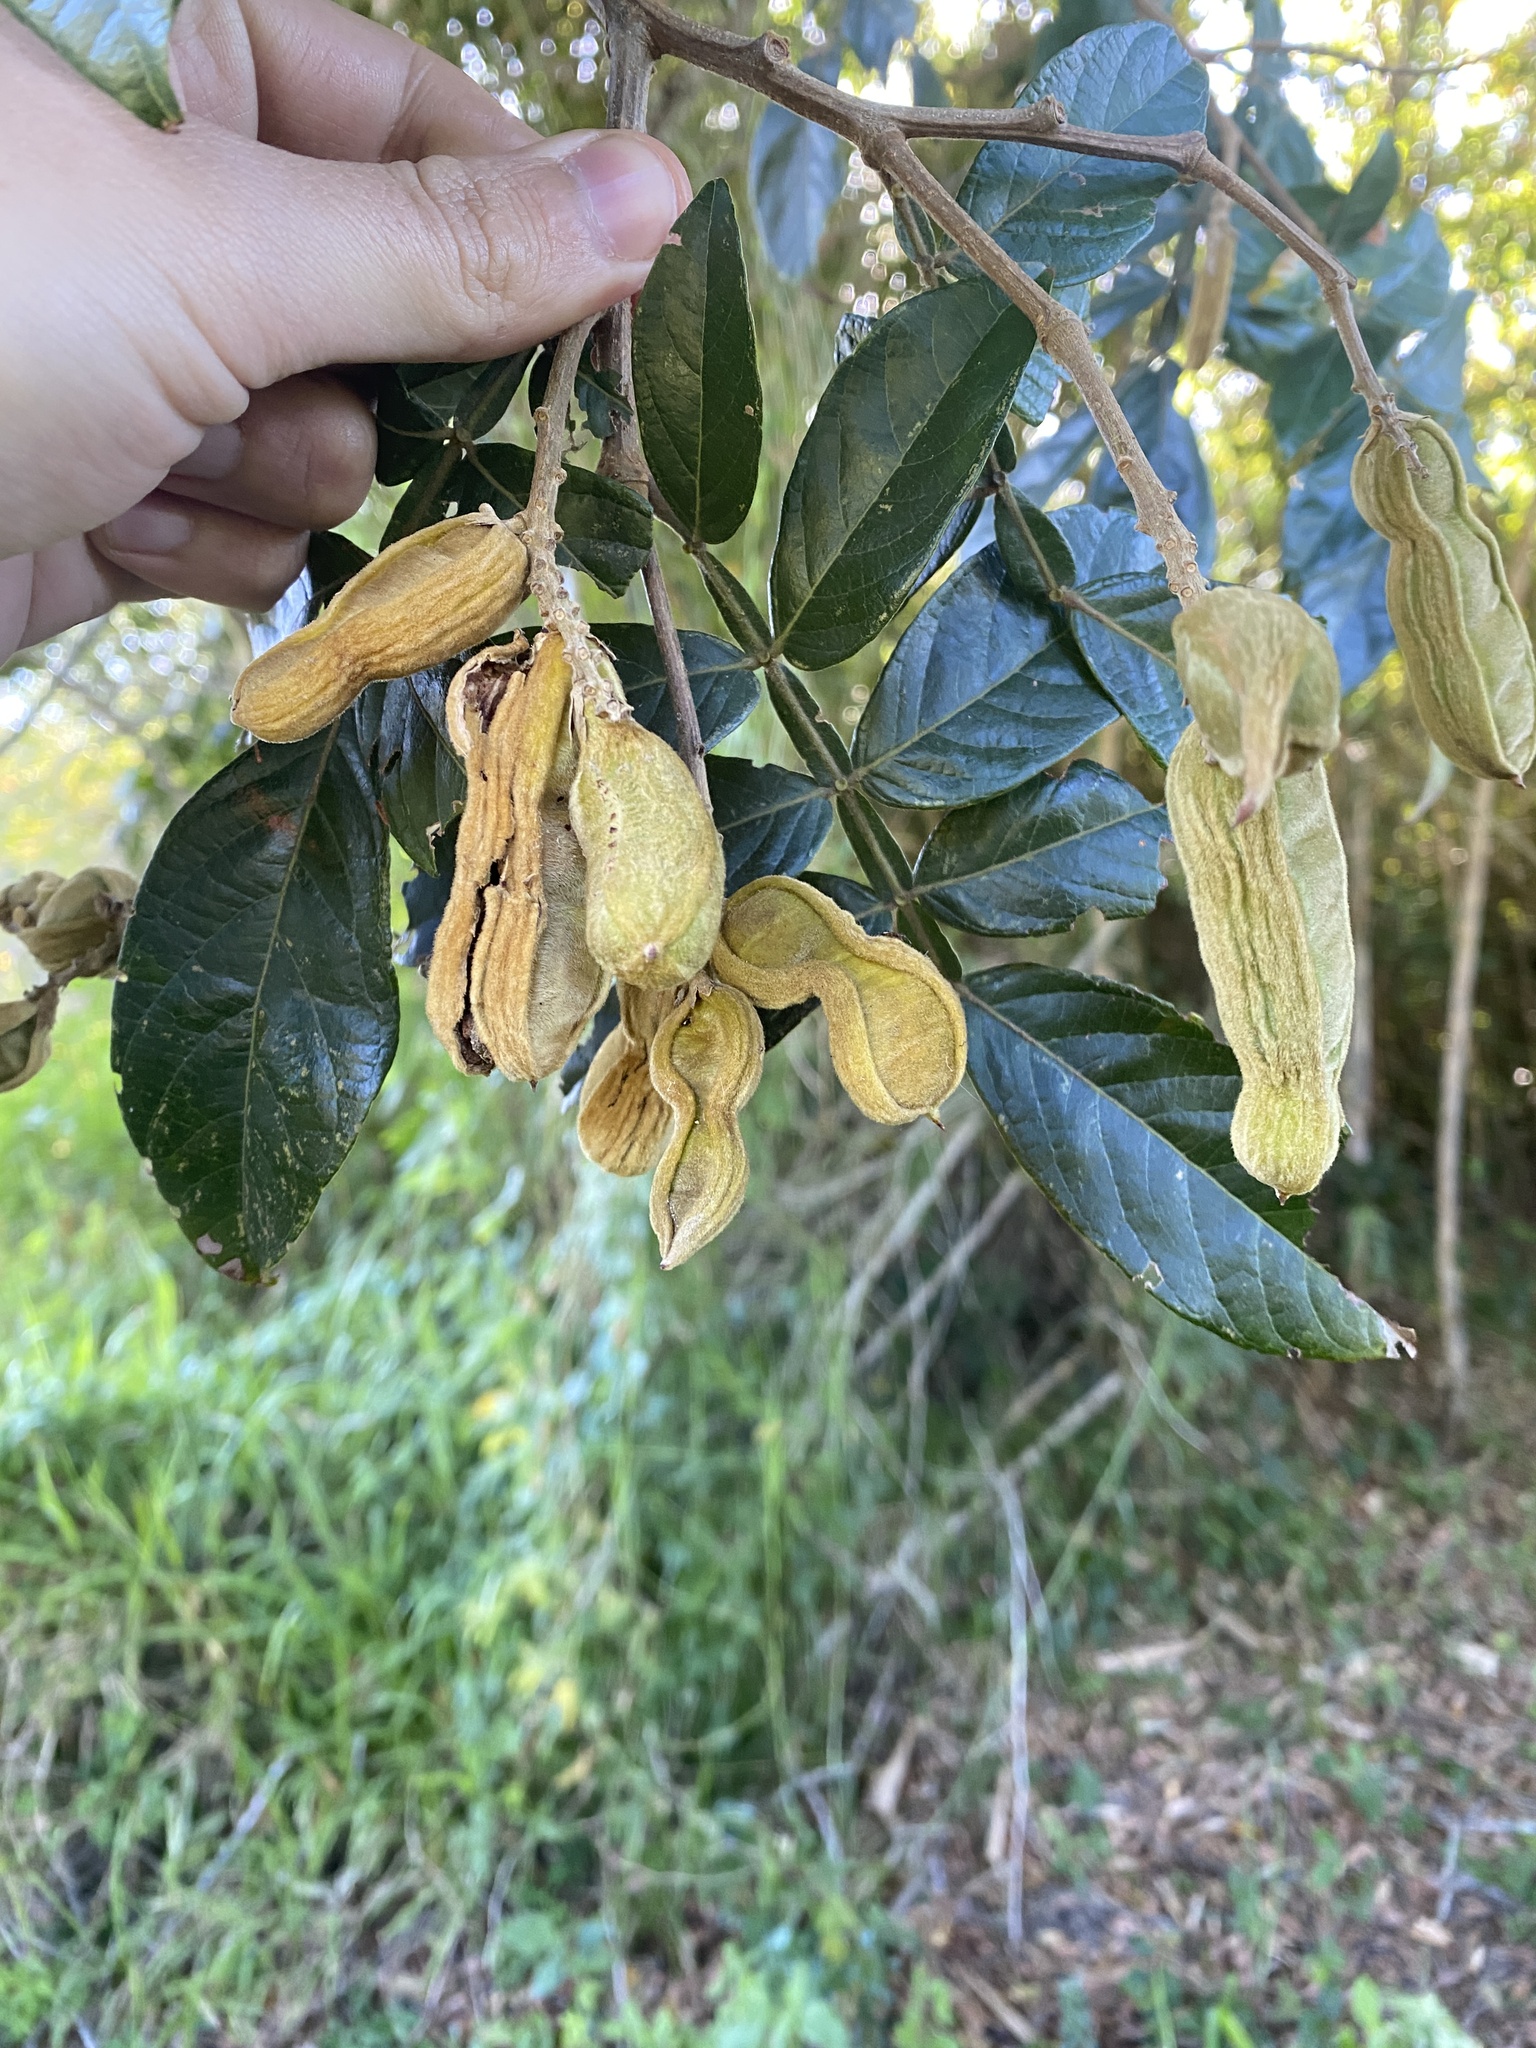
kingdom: Plantae
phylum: Tracheophyta
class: Magnoliopsida
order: Fabales
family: Fabaceae
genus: Inga
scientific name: Inga uraguensis
